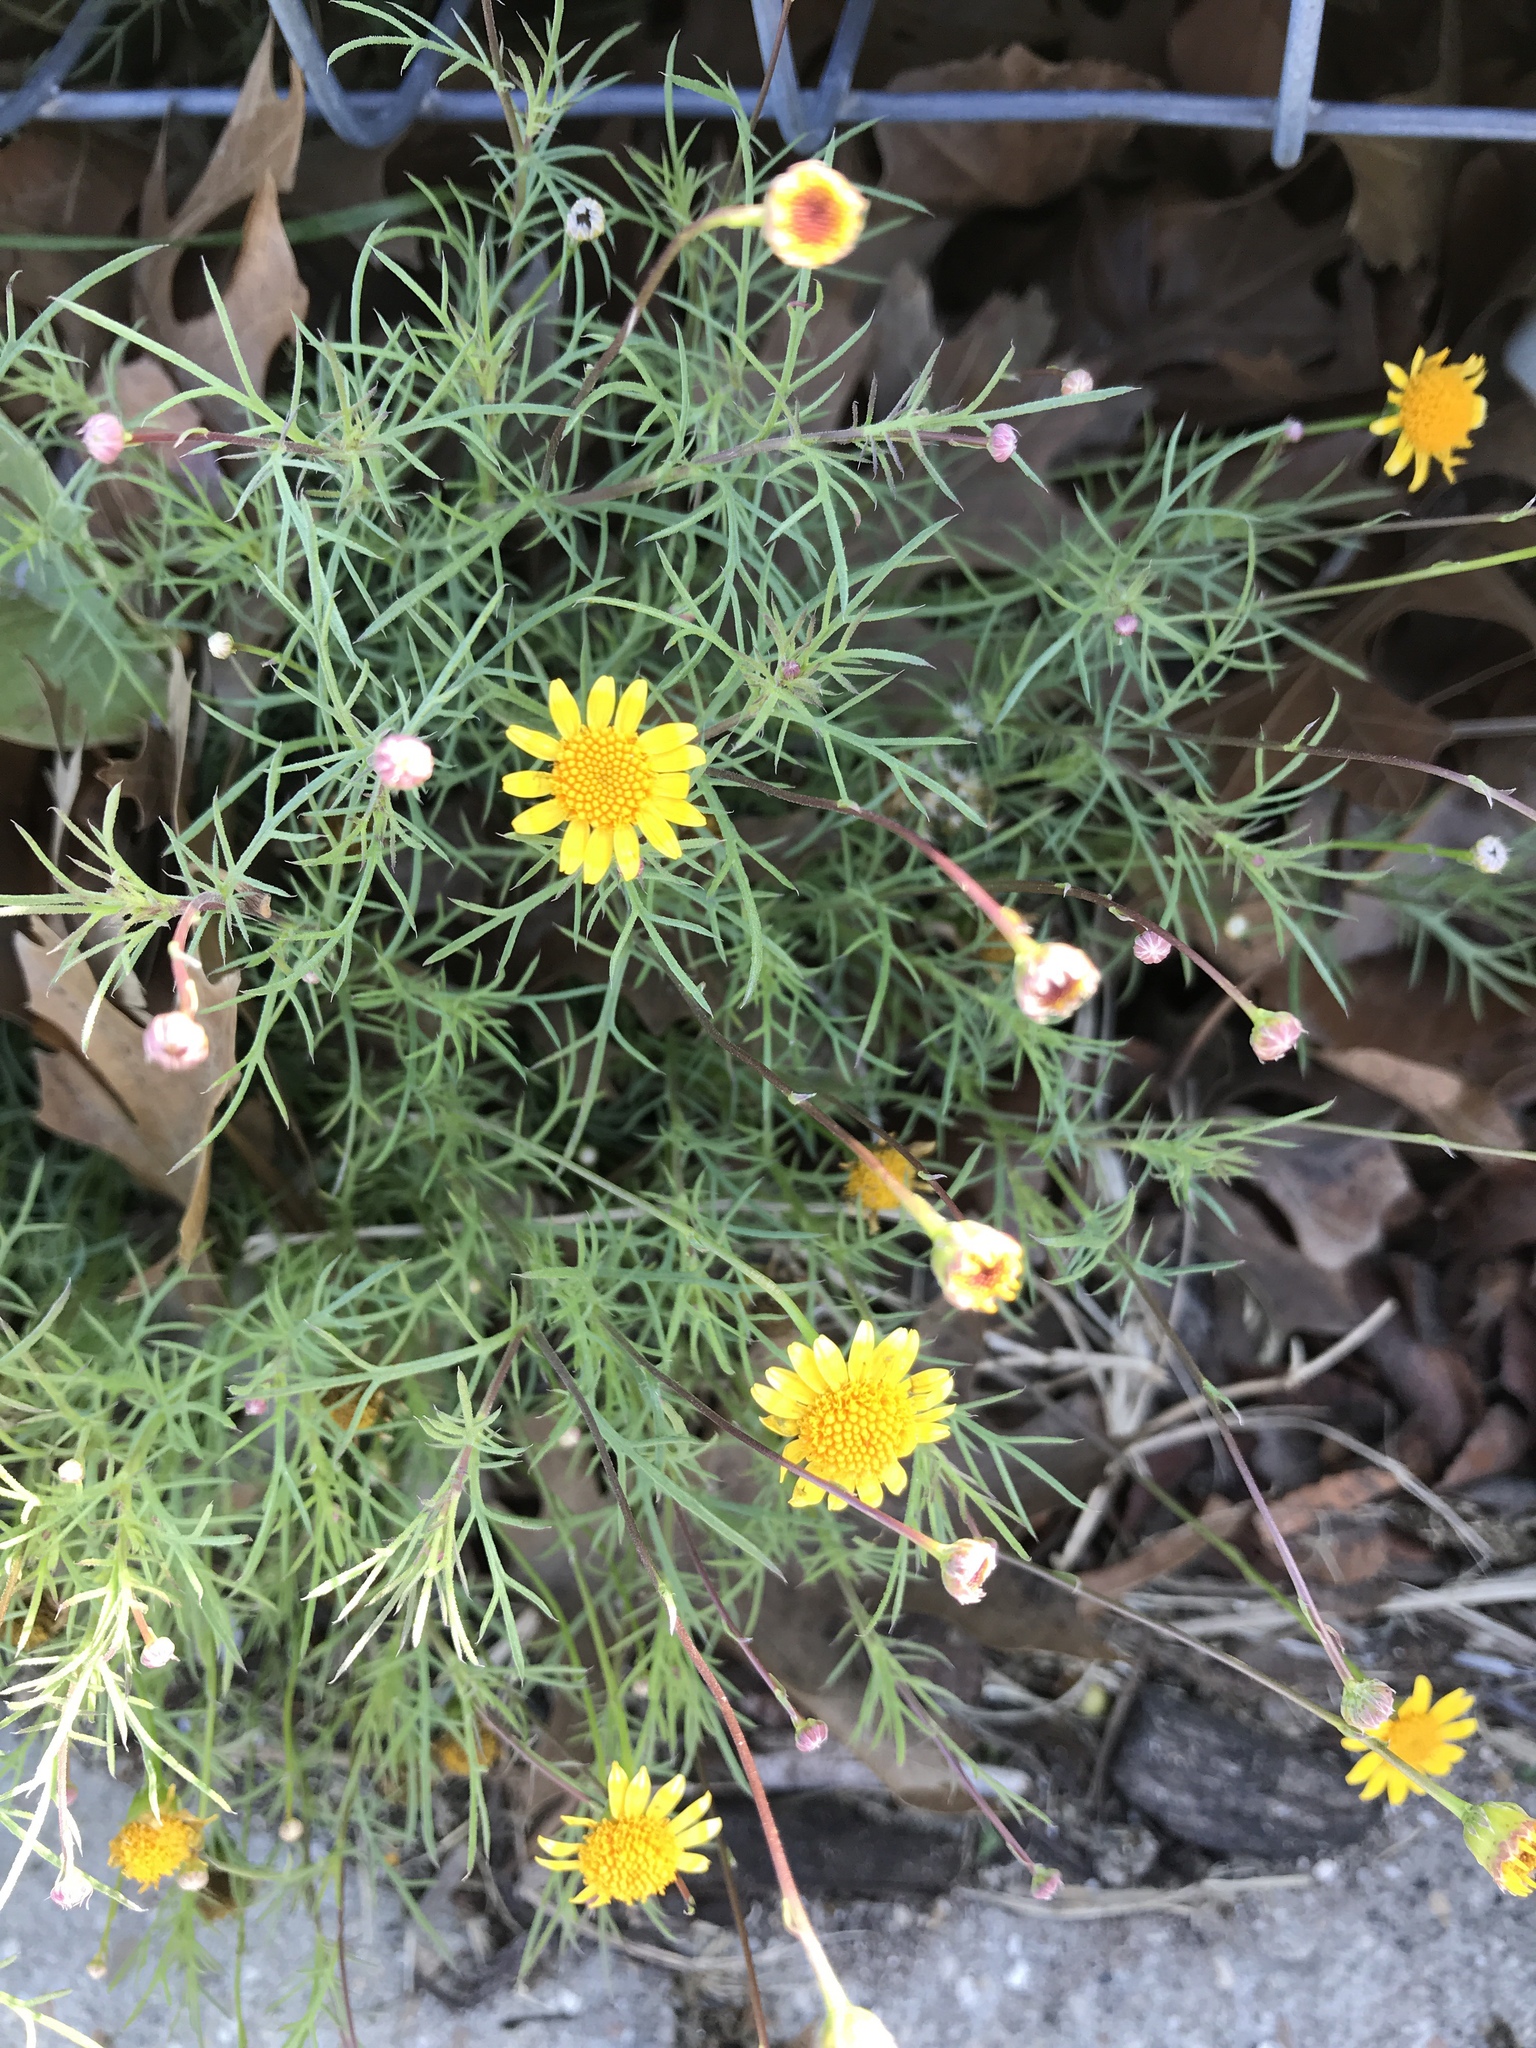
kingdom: Plantae
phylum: Tracheophyta
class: Magnoliopsida
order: Asterales
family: Asteraceae
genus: Thymophylla
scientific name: Thymophylla pentachaeta
